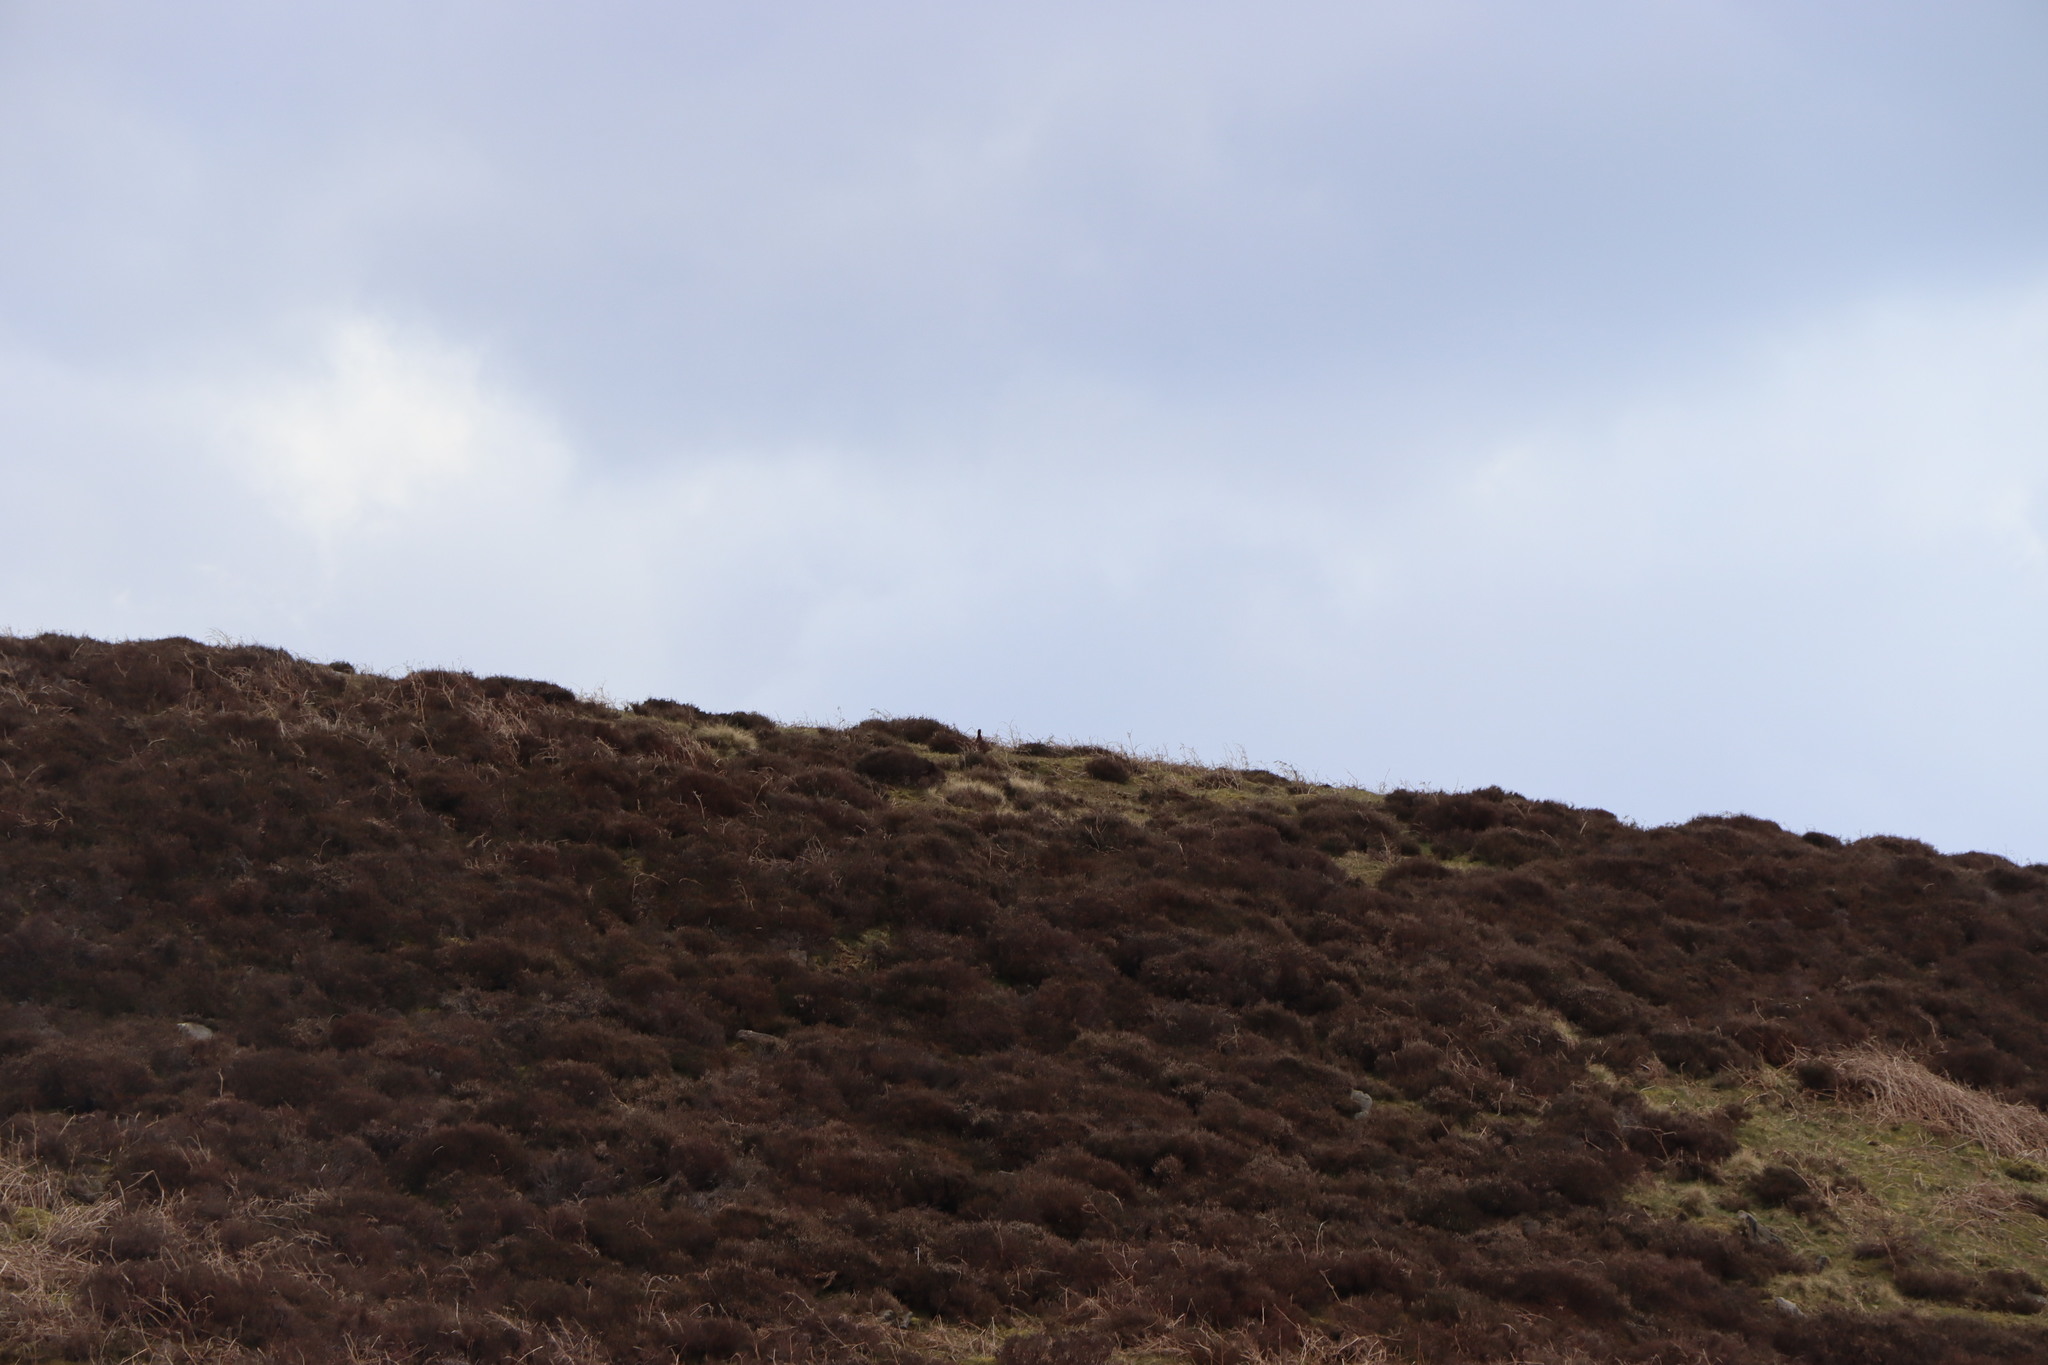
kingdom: Animalia
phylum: Chordata
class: Aves
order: Galliformes
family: Phasianidae
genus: Lagopus
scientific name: Lagopus lagopus
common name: Willow ptarmigan
